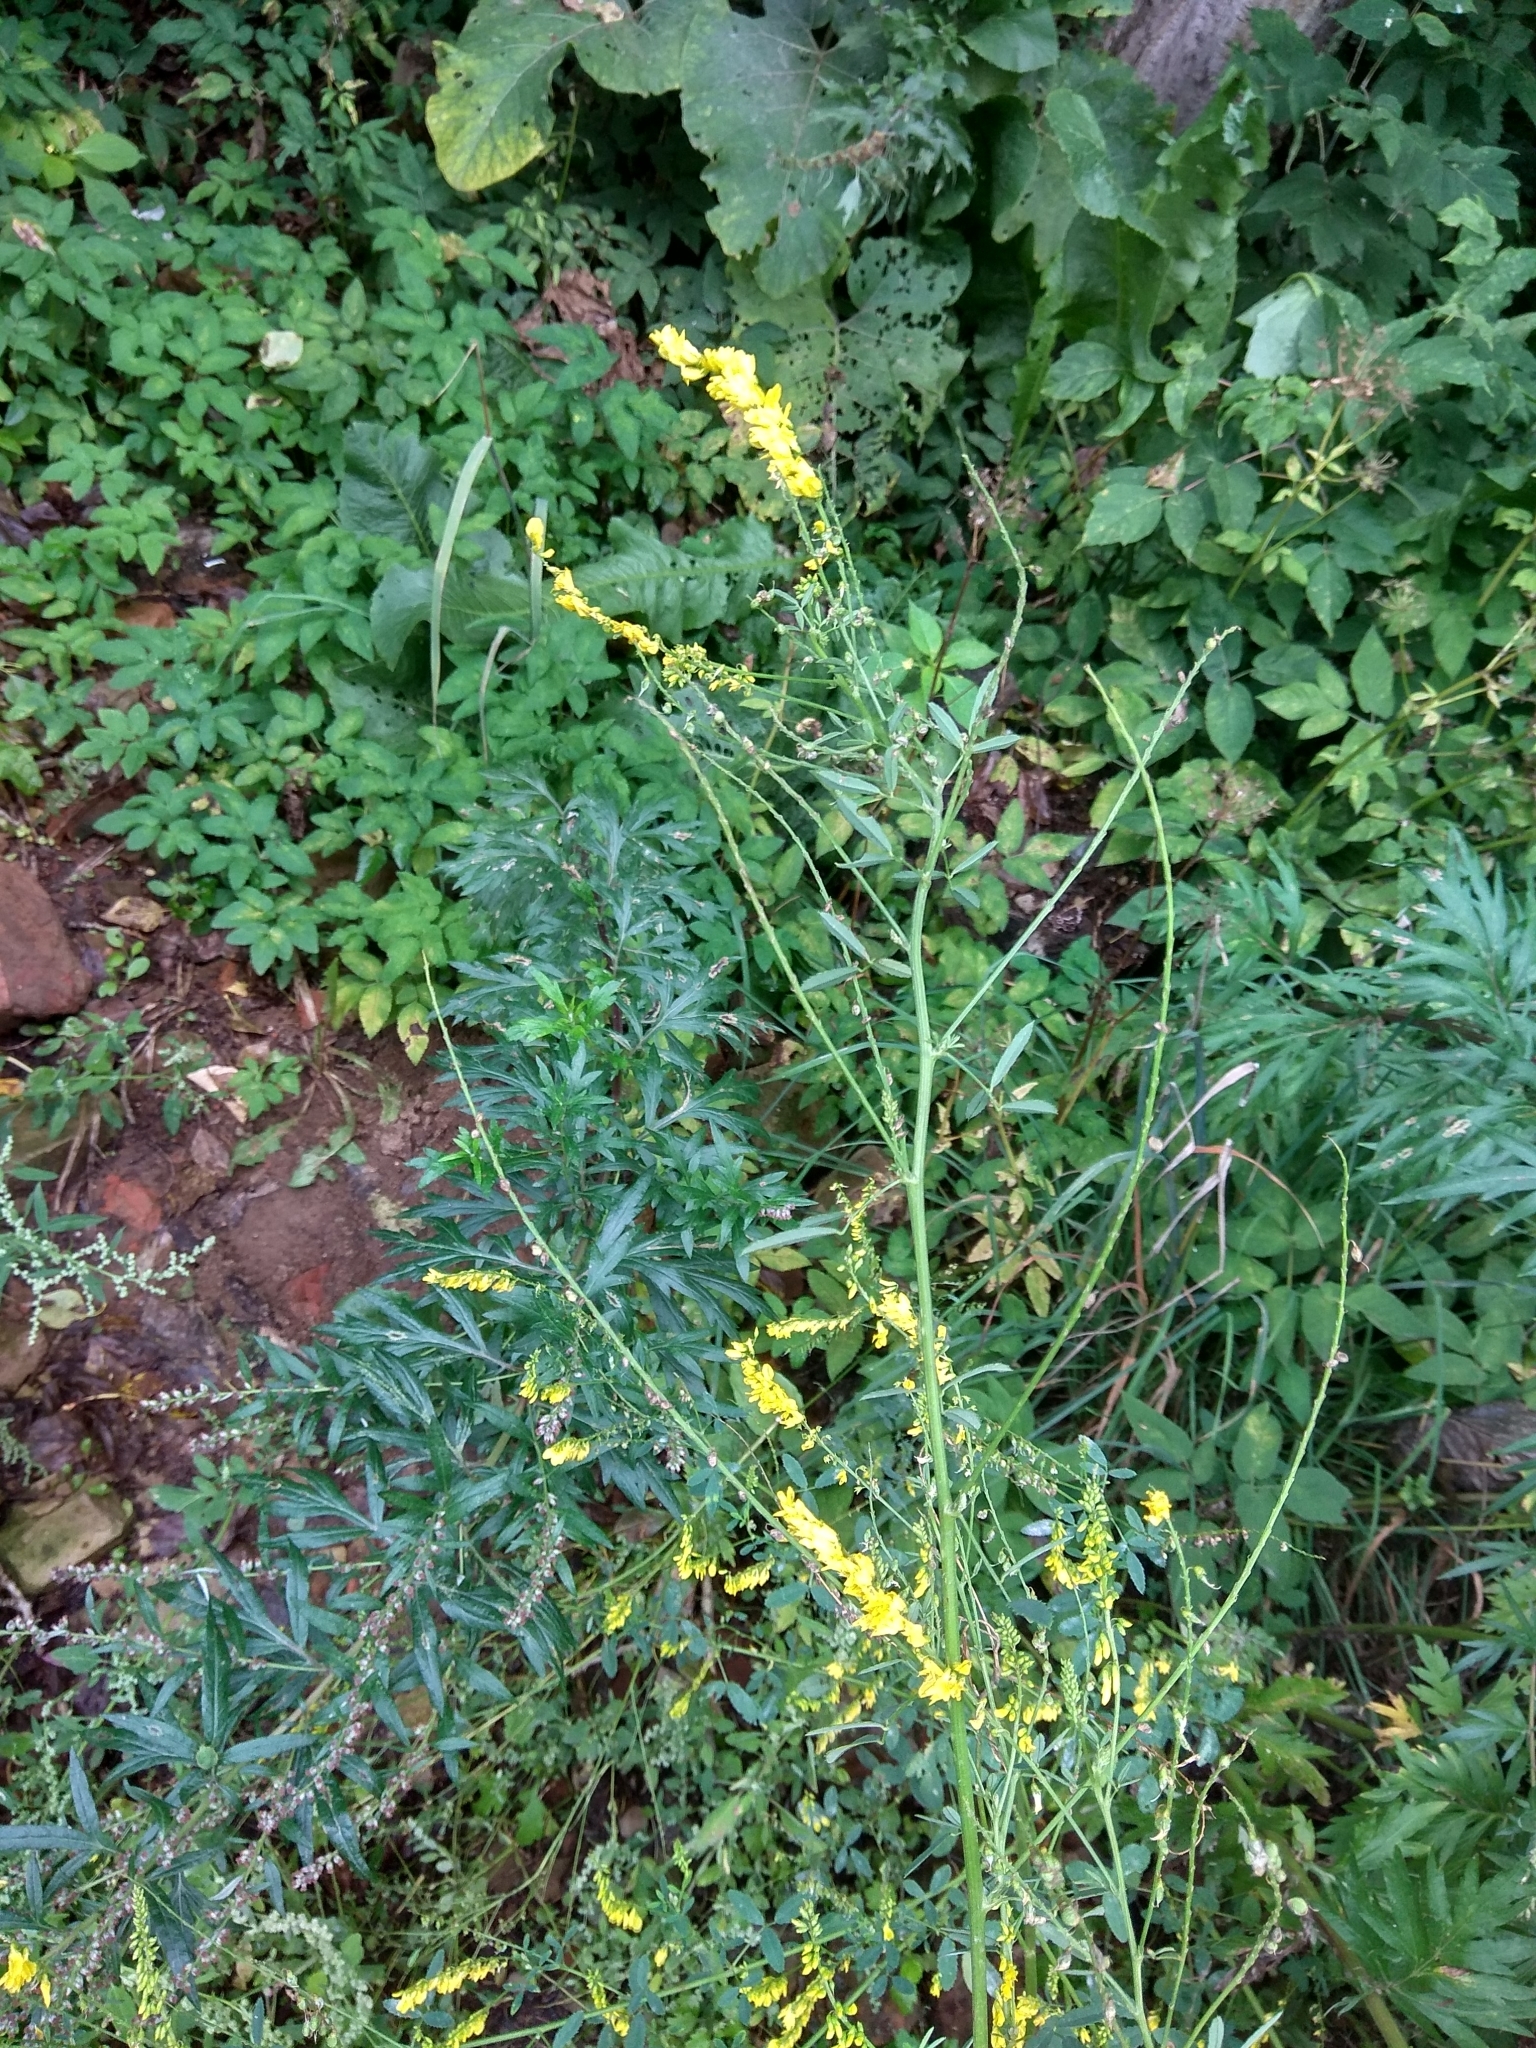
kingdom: Plantae
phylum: Tracheophyta
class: Magnoliopsida
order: Fabales
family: Fabaceae
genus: Melilotus
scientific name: Melilotus officinalis
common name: Sweetclover
